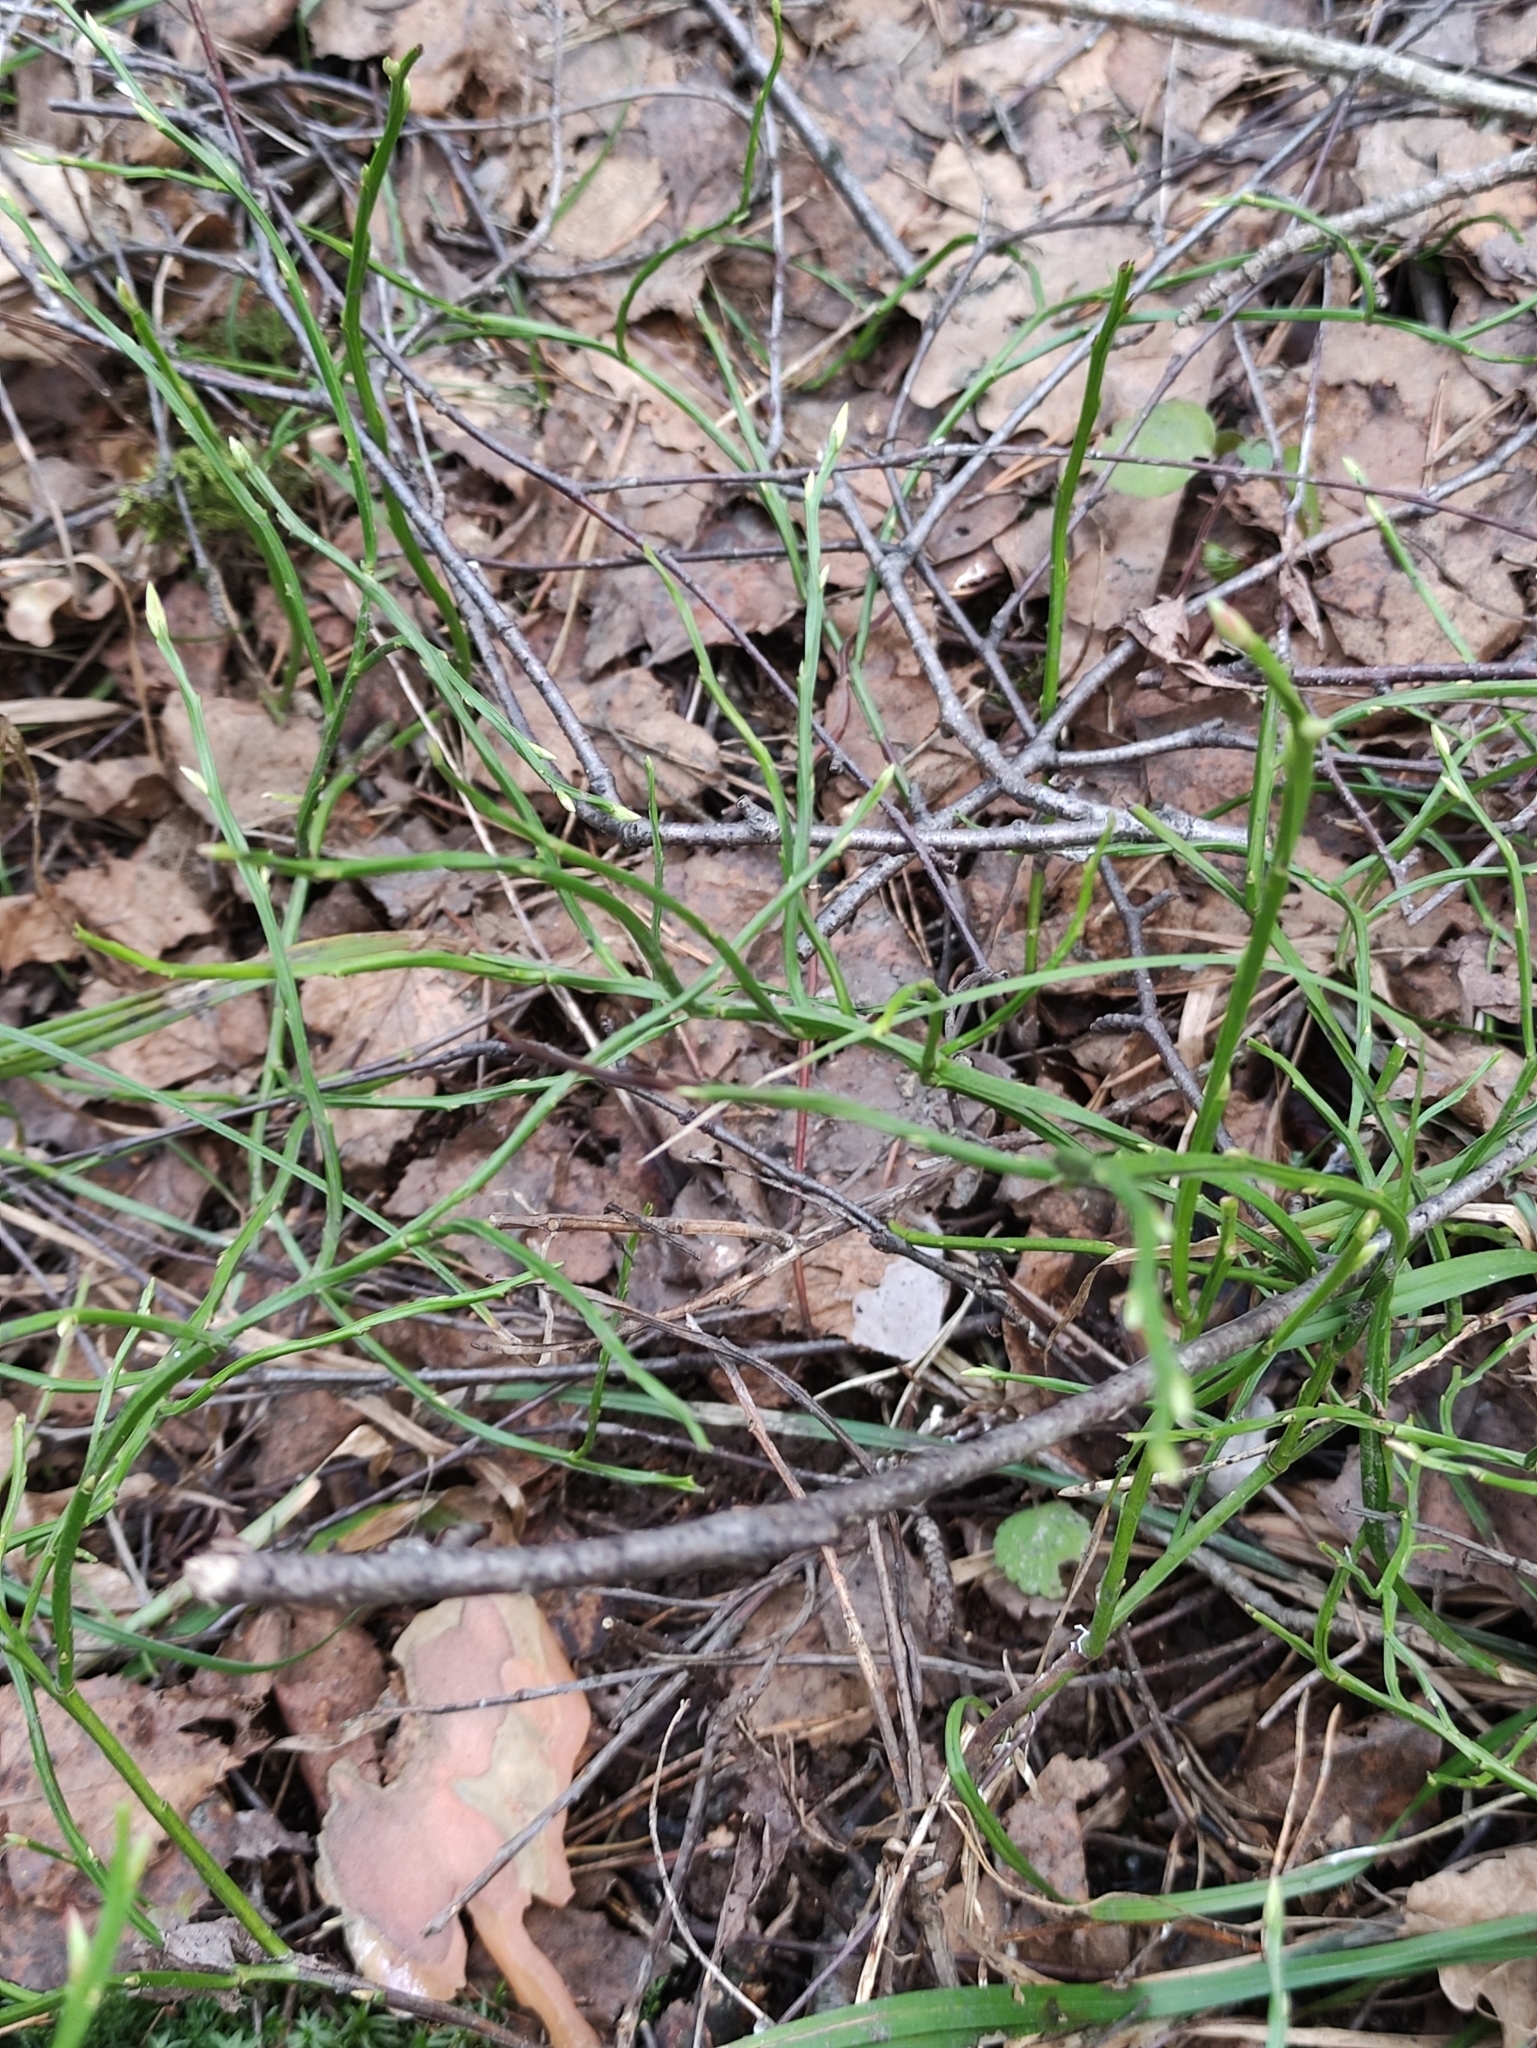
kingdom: Plantae
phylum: Tracheophyta
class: Magnoliopsida
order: Ericales
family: Ericaceae
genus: Vaccinium
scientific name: Vaccinium myrtillus
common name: Bilberry
